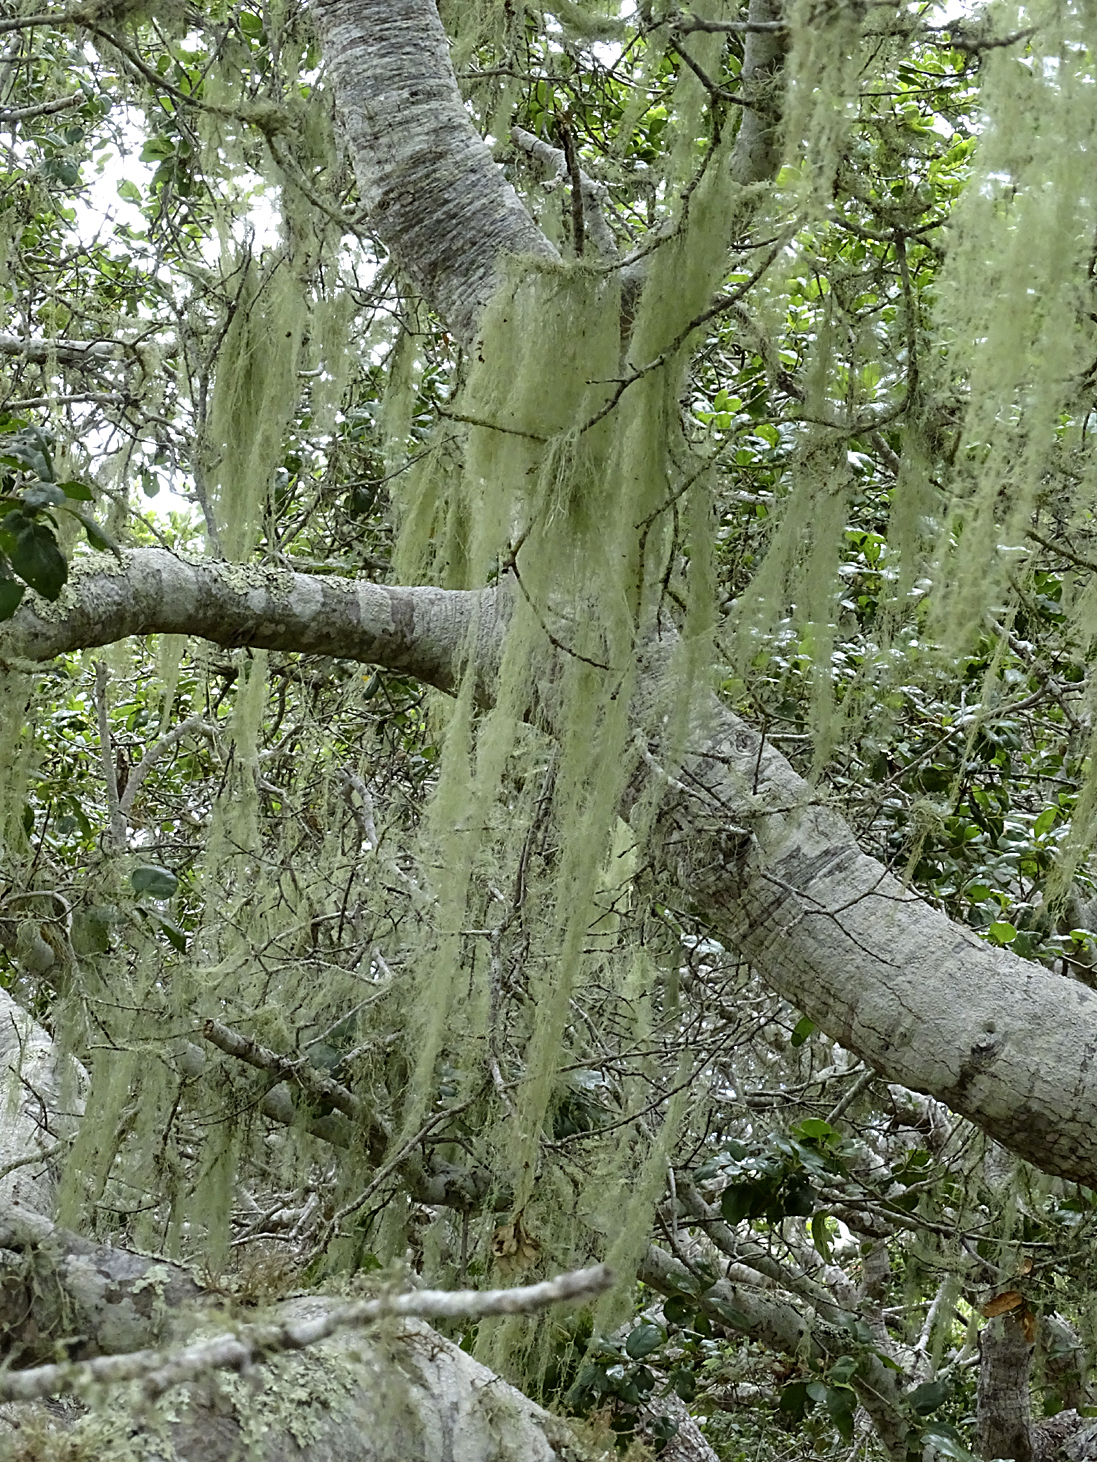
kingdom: Fungi
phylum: Ascomycota
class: Lecanoromycetes
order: Lecanorales
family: Ramalinaceae
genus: Ramalina
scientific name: Ramalina menziesii
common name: Lace lichen
